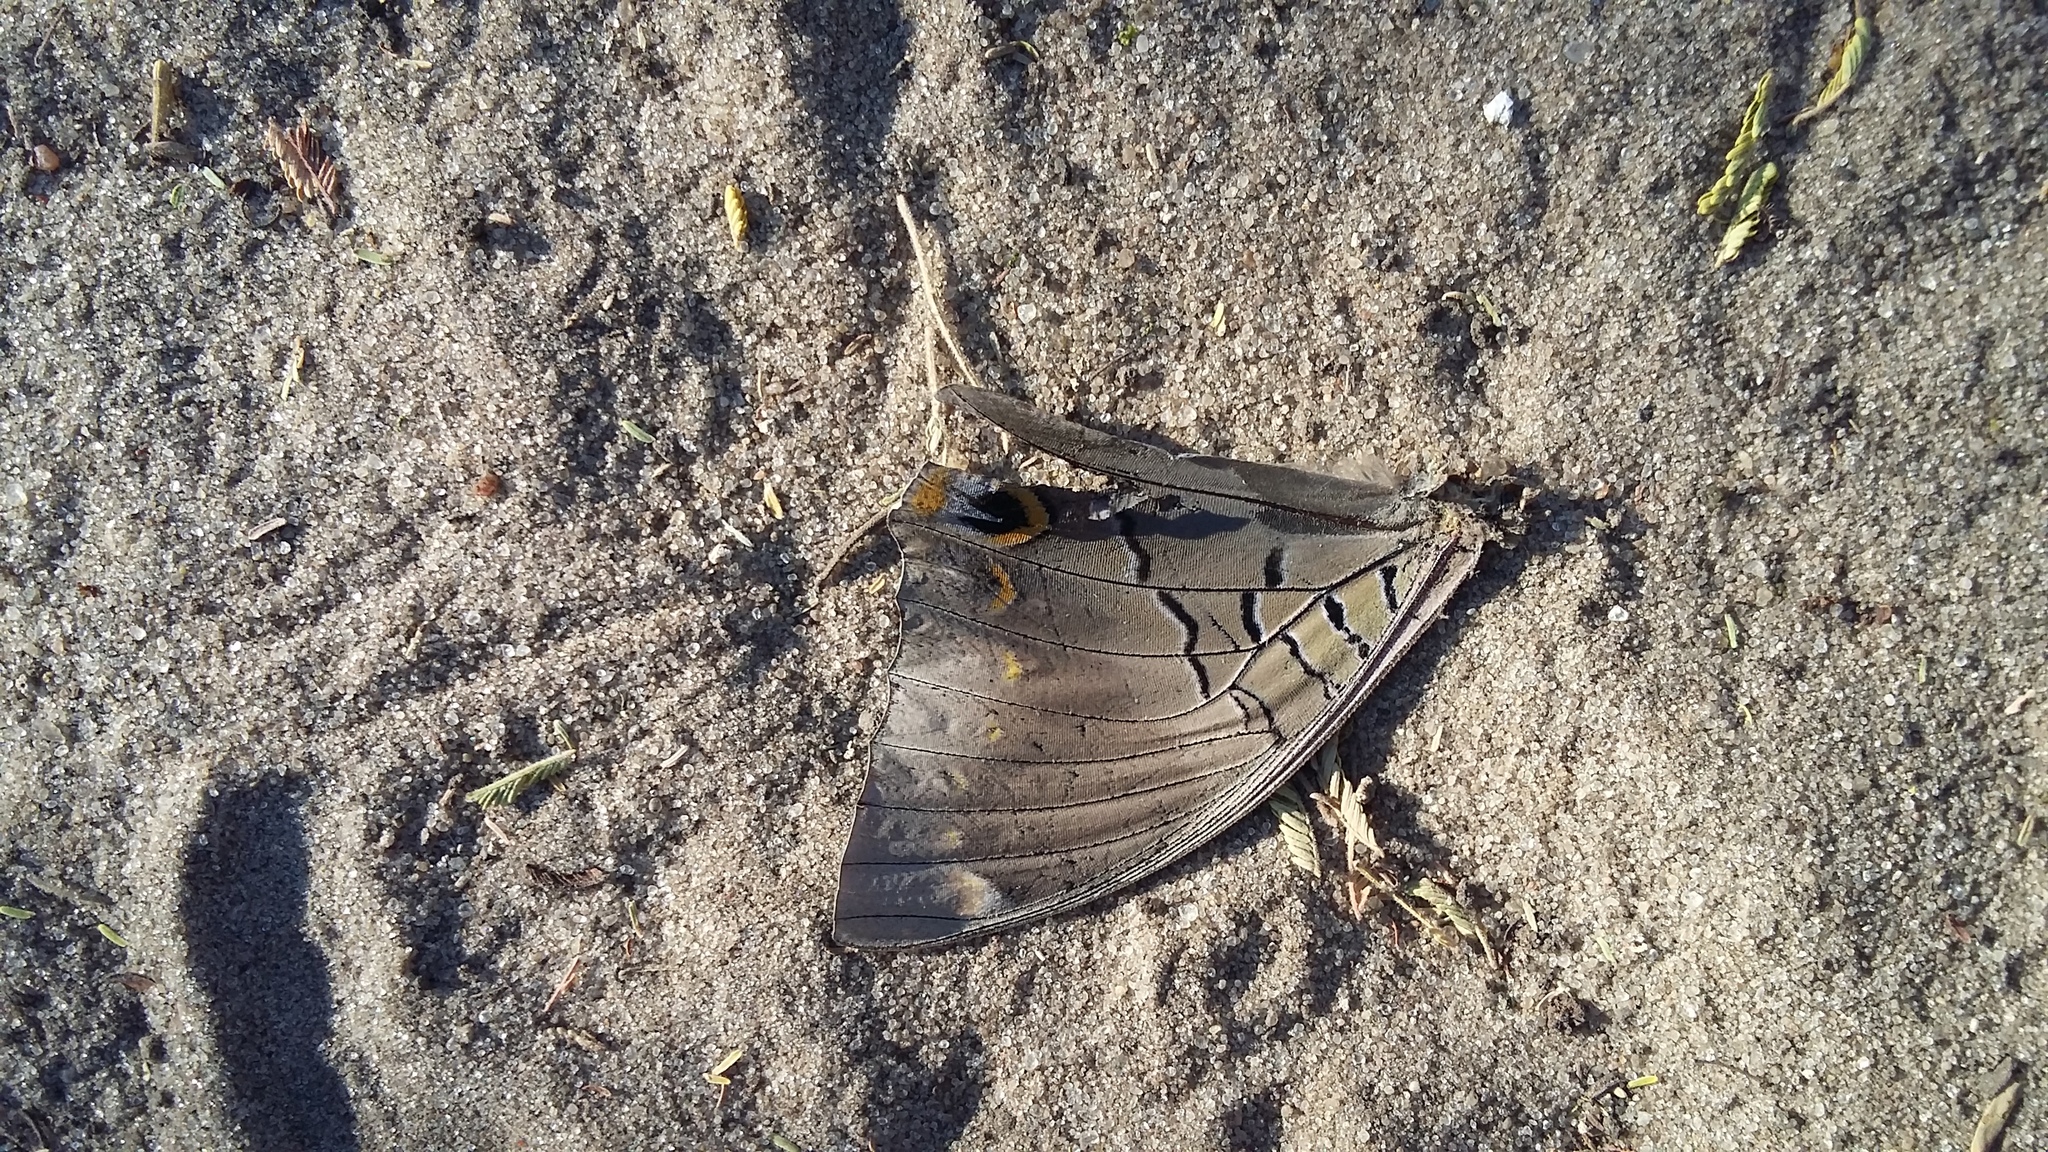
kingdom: Animalia
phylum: Arthropoda
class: Insecta
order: Lepidoptera
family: Nymphalidae
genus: Charaxes
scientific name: Charaxes bohemani
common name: Large blue charaxes
